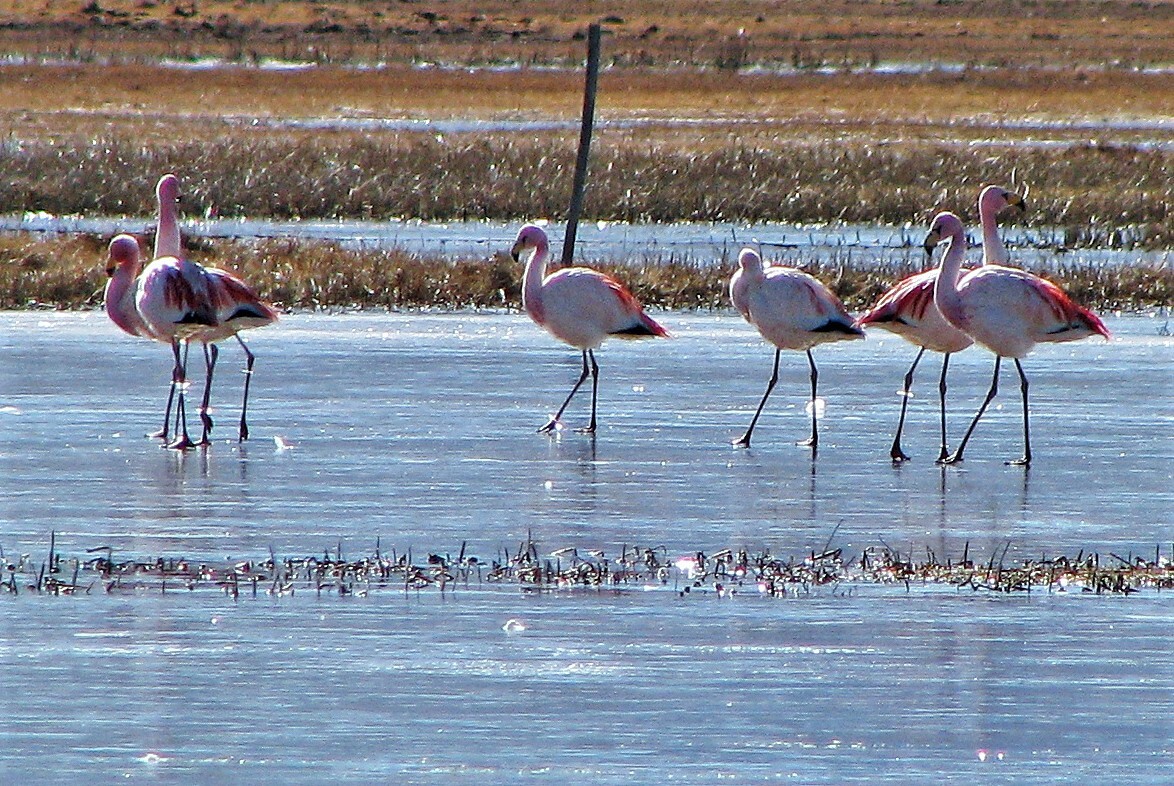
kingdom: Animalia
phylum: Chordata
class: Aves
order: Phoenicopteriformes
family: Phoenicopteridae
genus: Phoenicoparrus
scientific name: Phoenicoparrus jamesi
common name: James's flamingo
